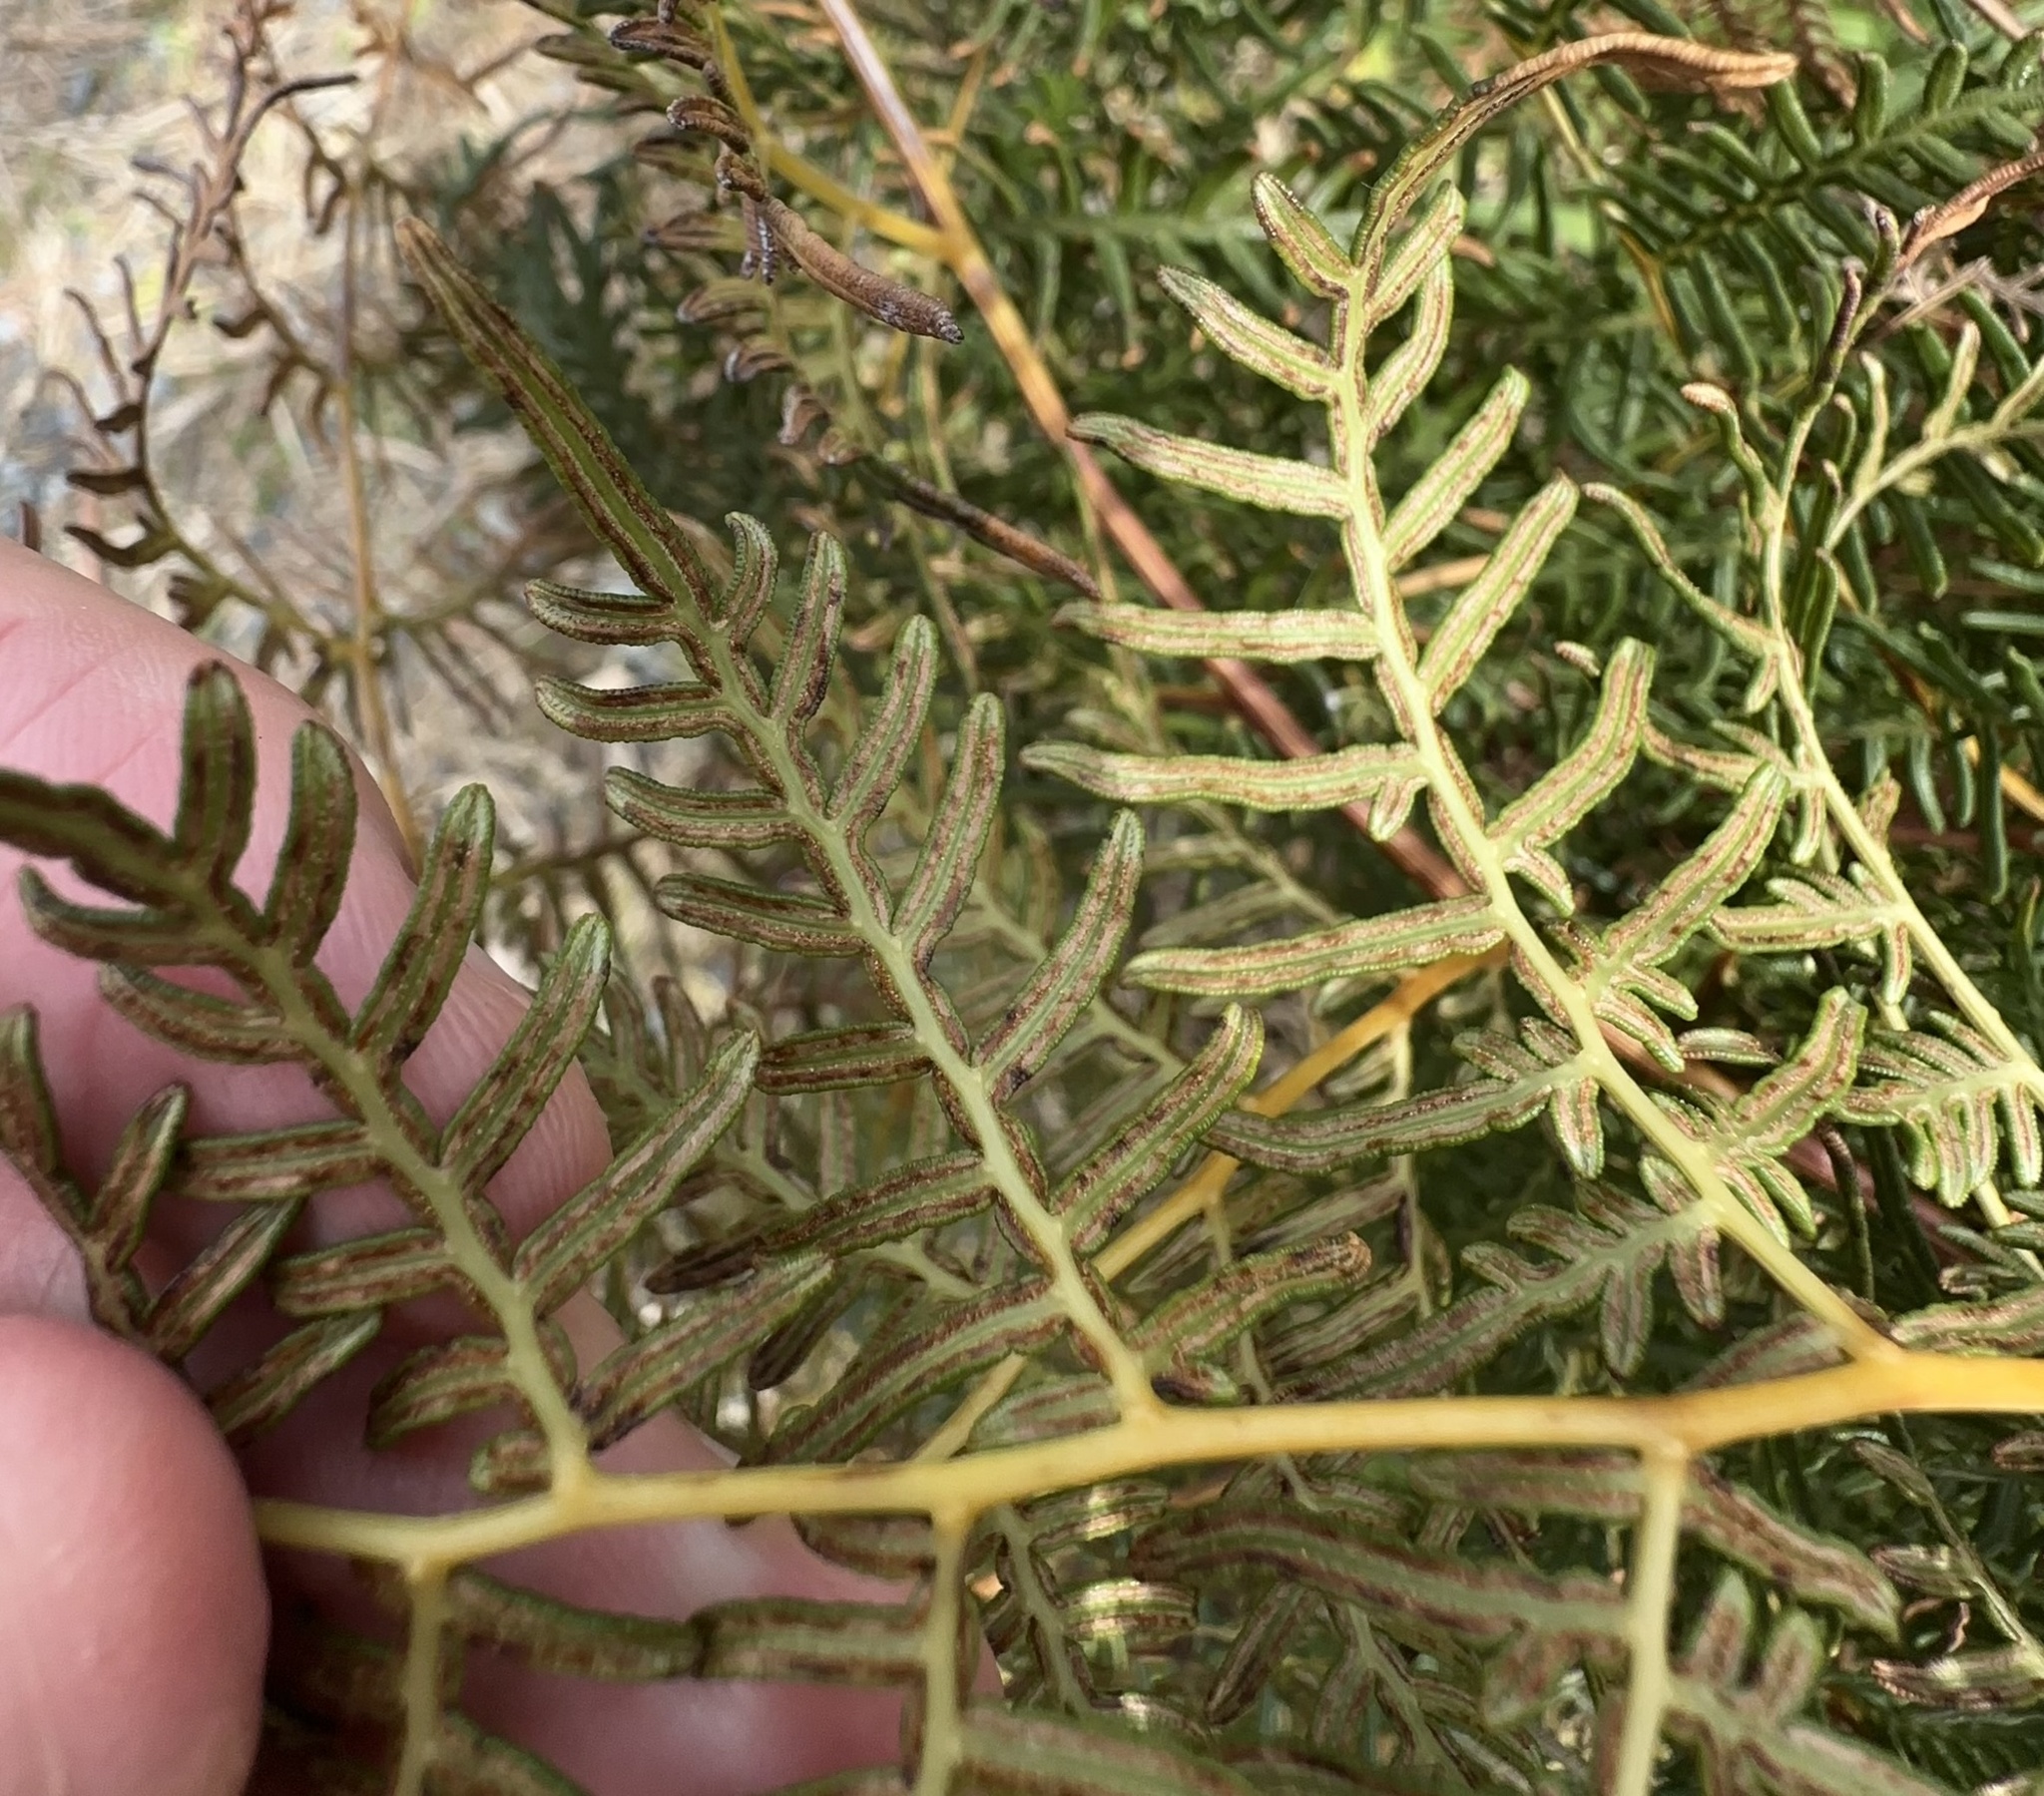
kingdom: Plantae
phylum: Tracheophyta
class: Polypodiopsida
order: Polypodiales
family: Dennstaedtiaceae
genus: Pteridium
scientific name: Pteridium esculentum
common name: Bracken fern
